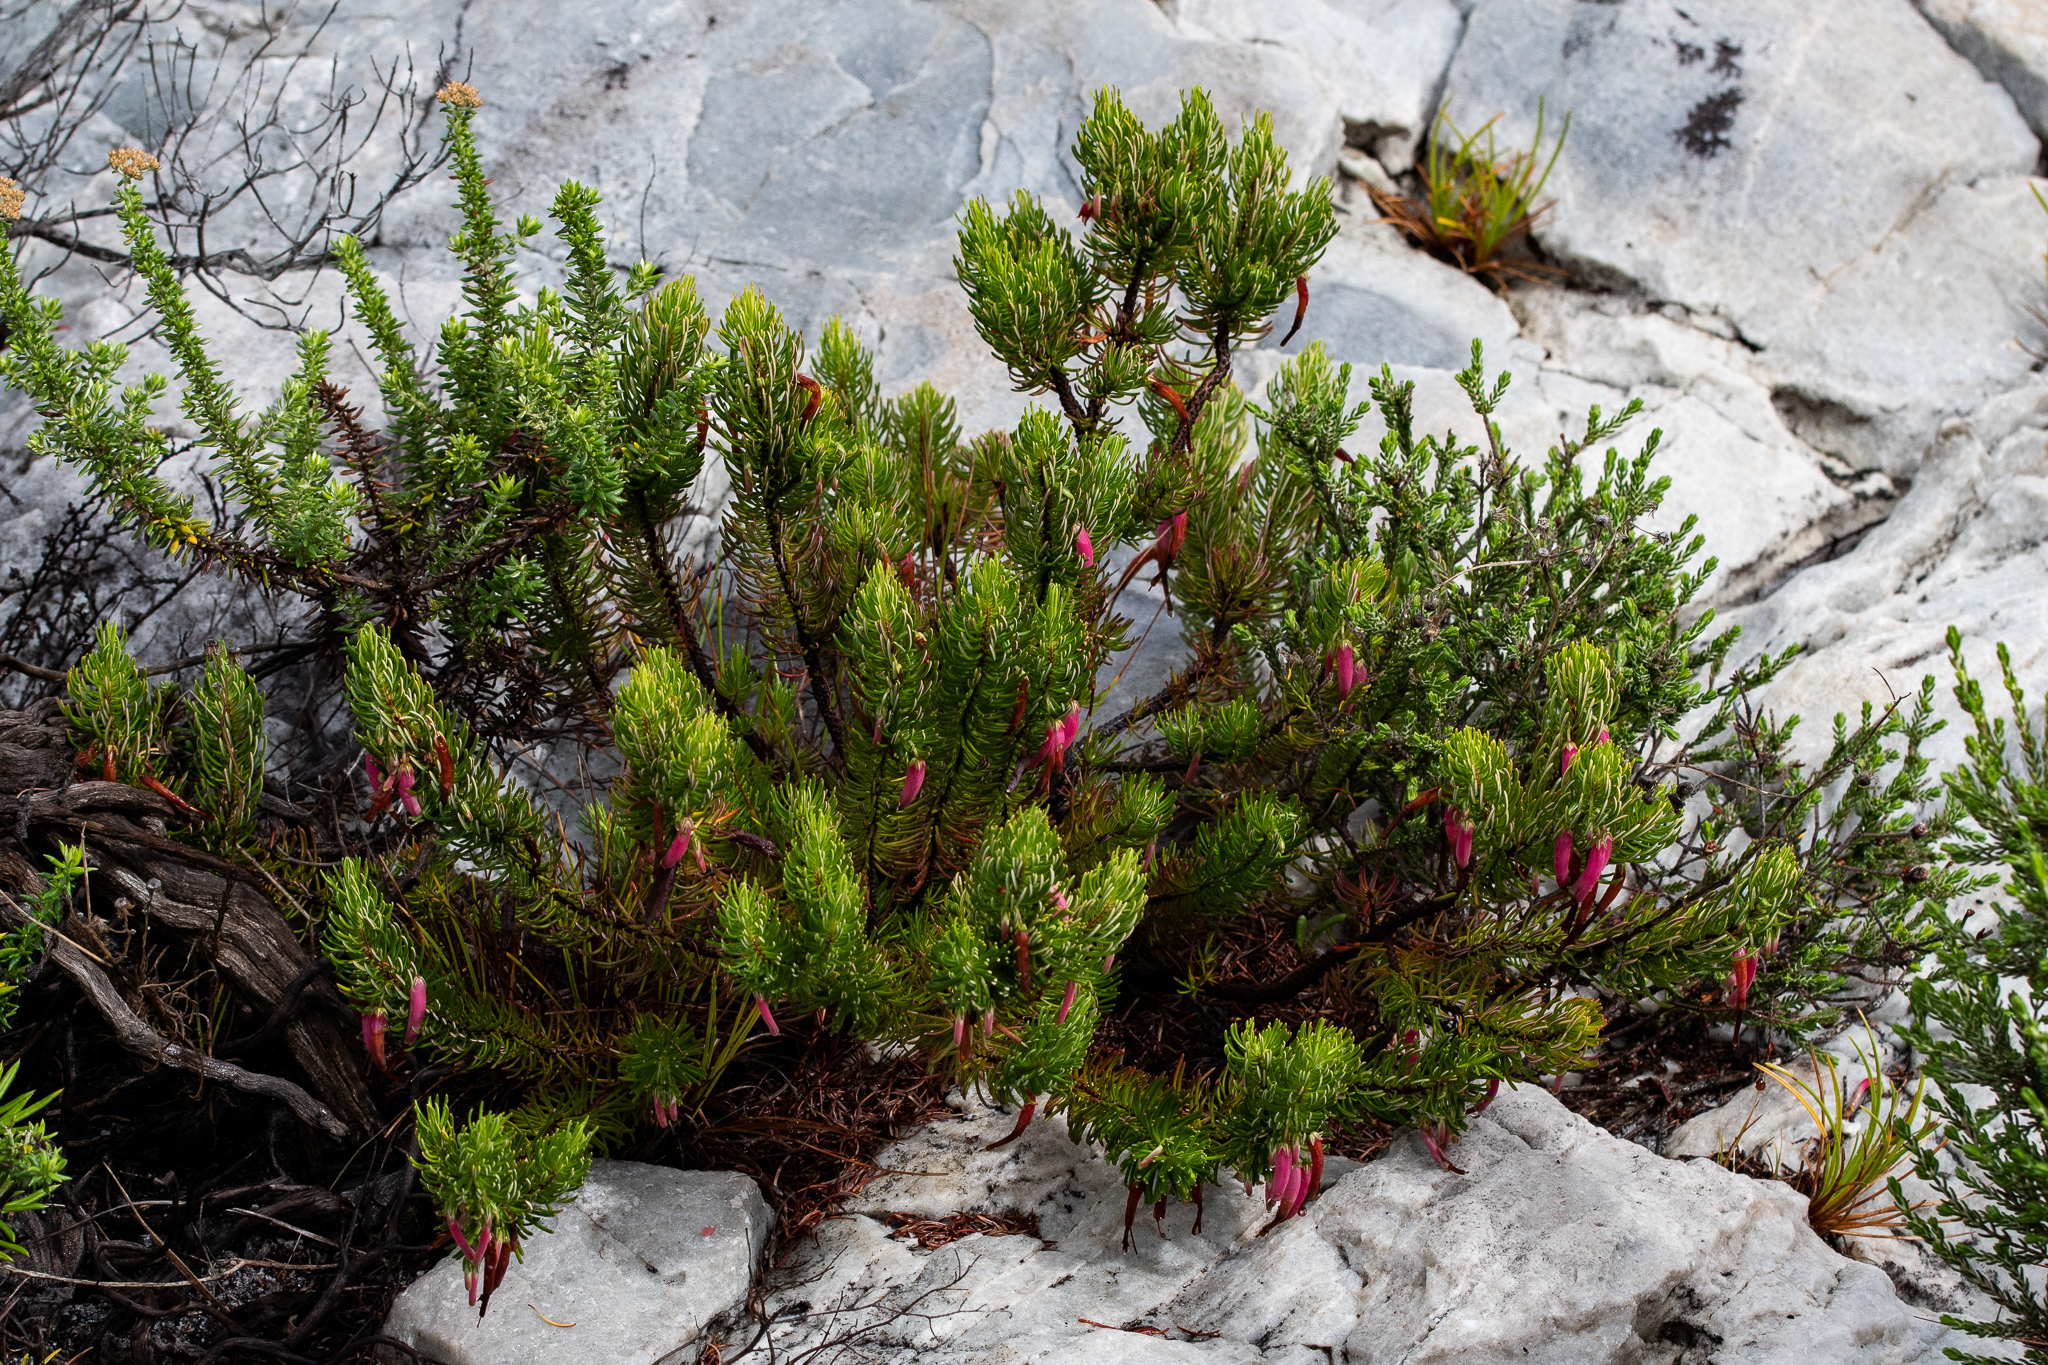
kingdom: Plantae
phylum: Tracheophyta
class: Magnoliopsida
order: Ericales
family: Ericaceae
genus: Erica
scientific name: Erica plukenetii
